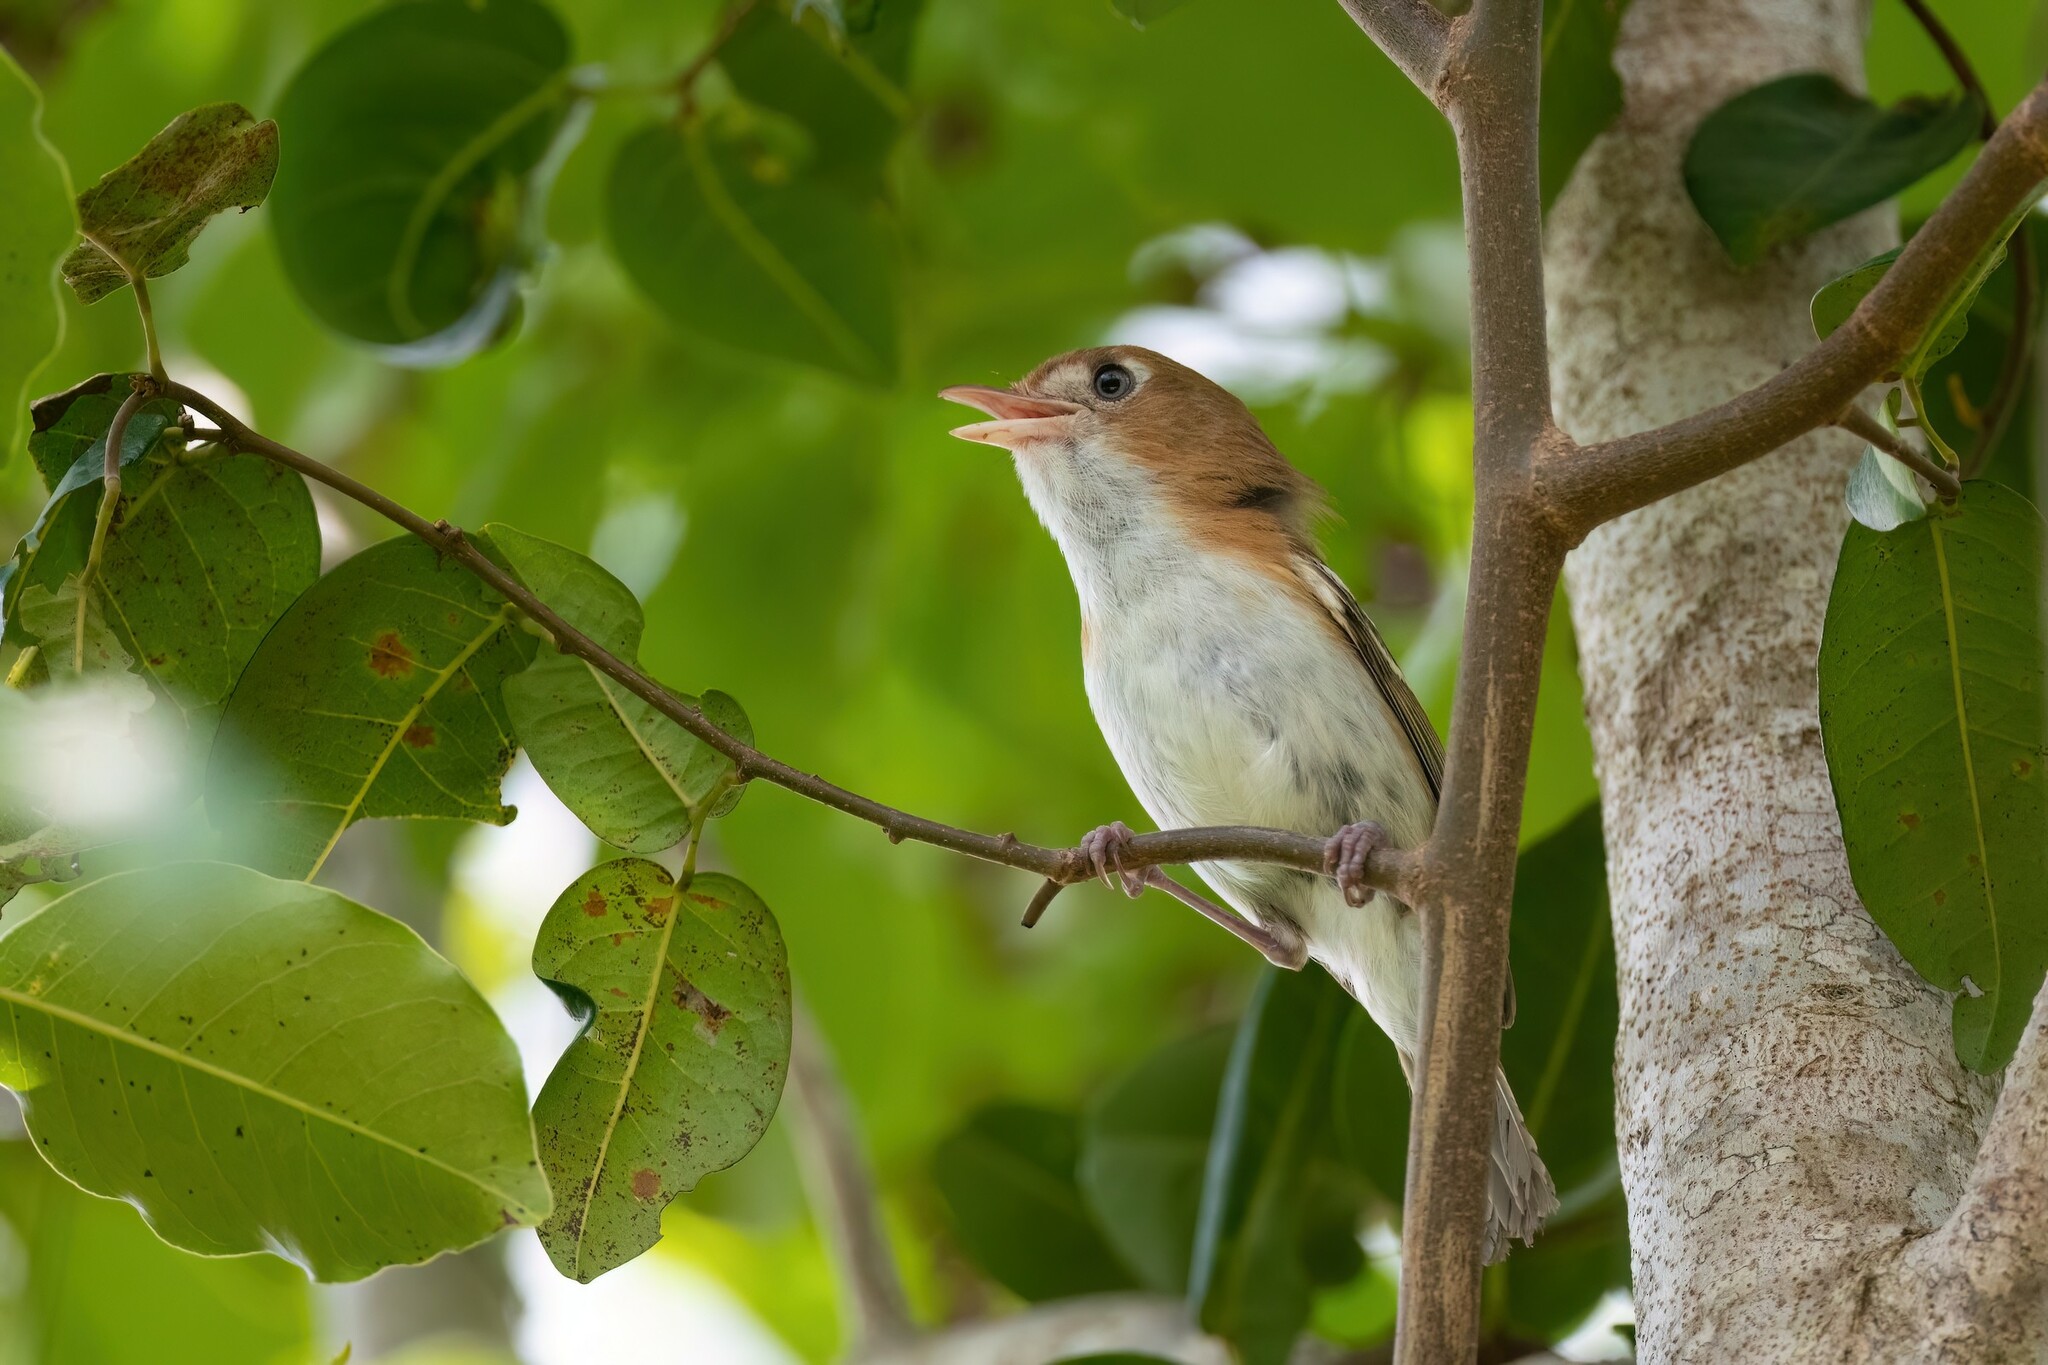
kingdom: Animalia
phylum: Chordata
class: Aves
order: Passeriformes
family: Vireonidae
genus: Vireo
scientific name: Vireo bairdi
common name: Cozumel vireo
